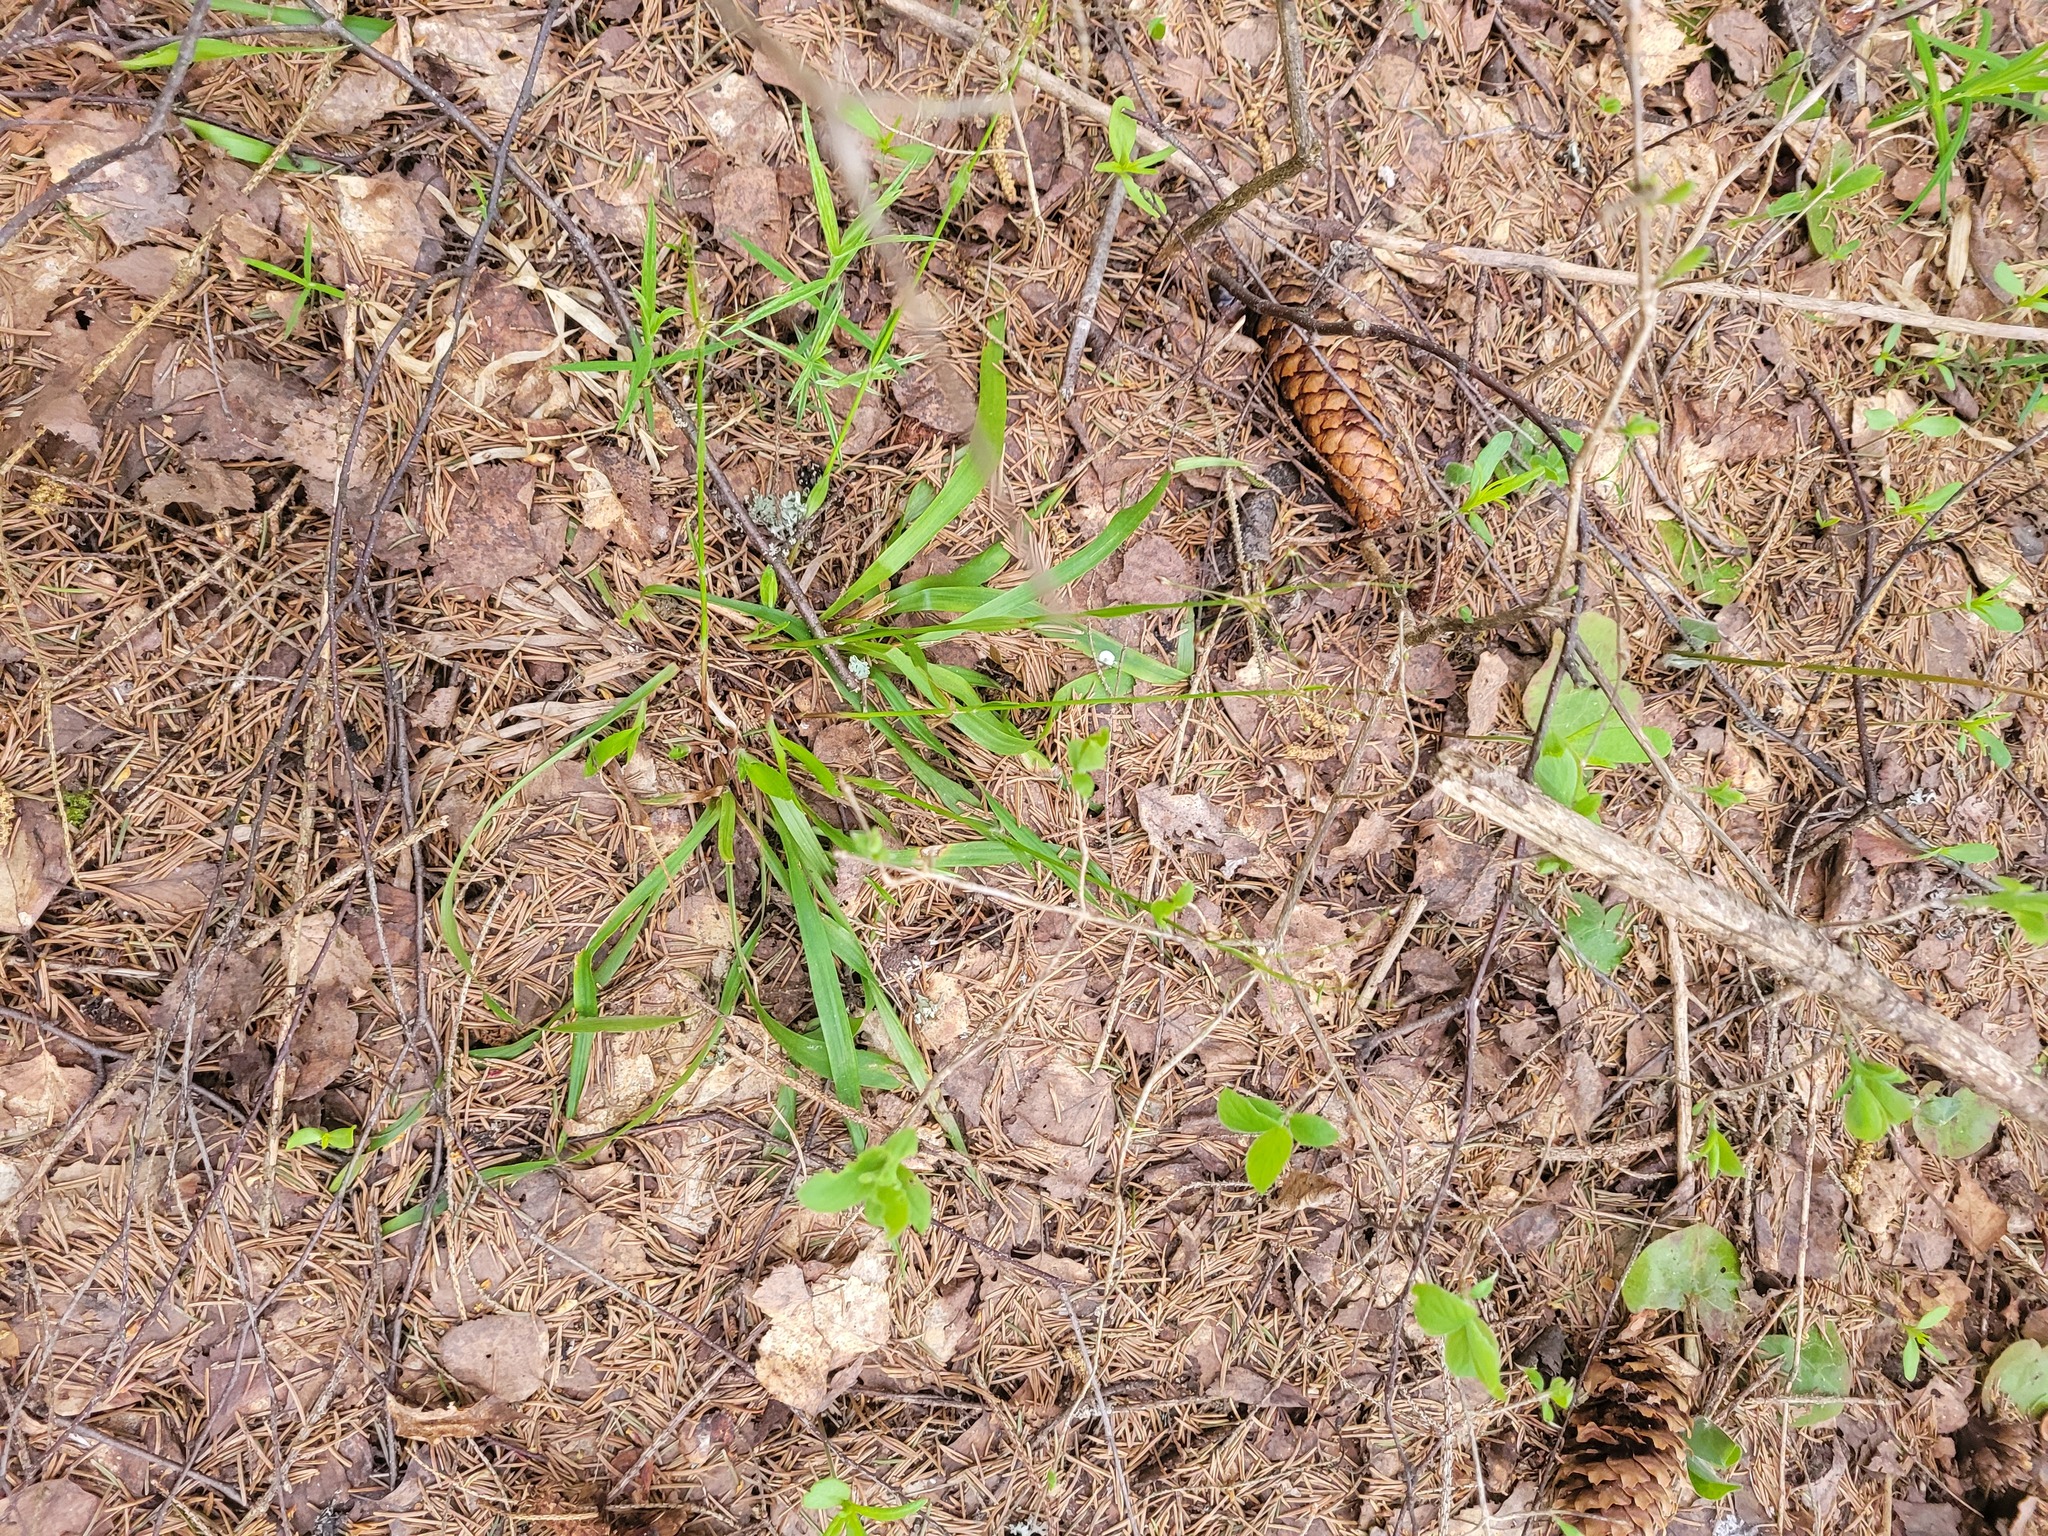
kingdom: Plantae
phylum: Tracheophyta
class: Liliopsida
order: Poales
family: Juncaceae
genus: Luzula
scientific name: Luzula pilosa
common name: Hairy wood-rush
